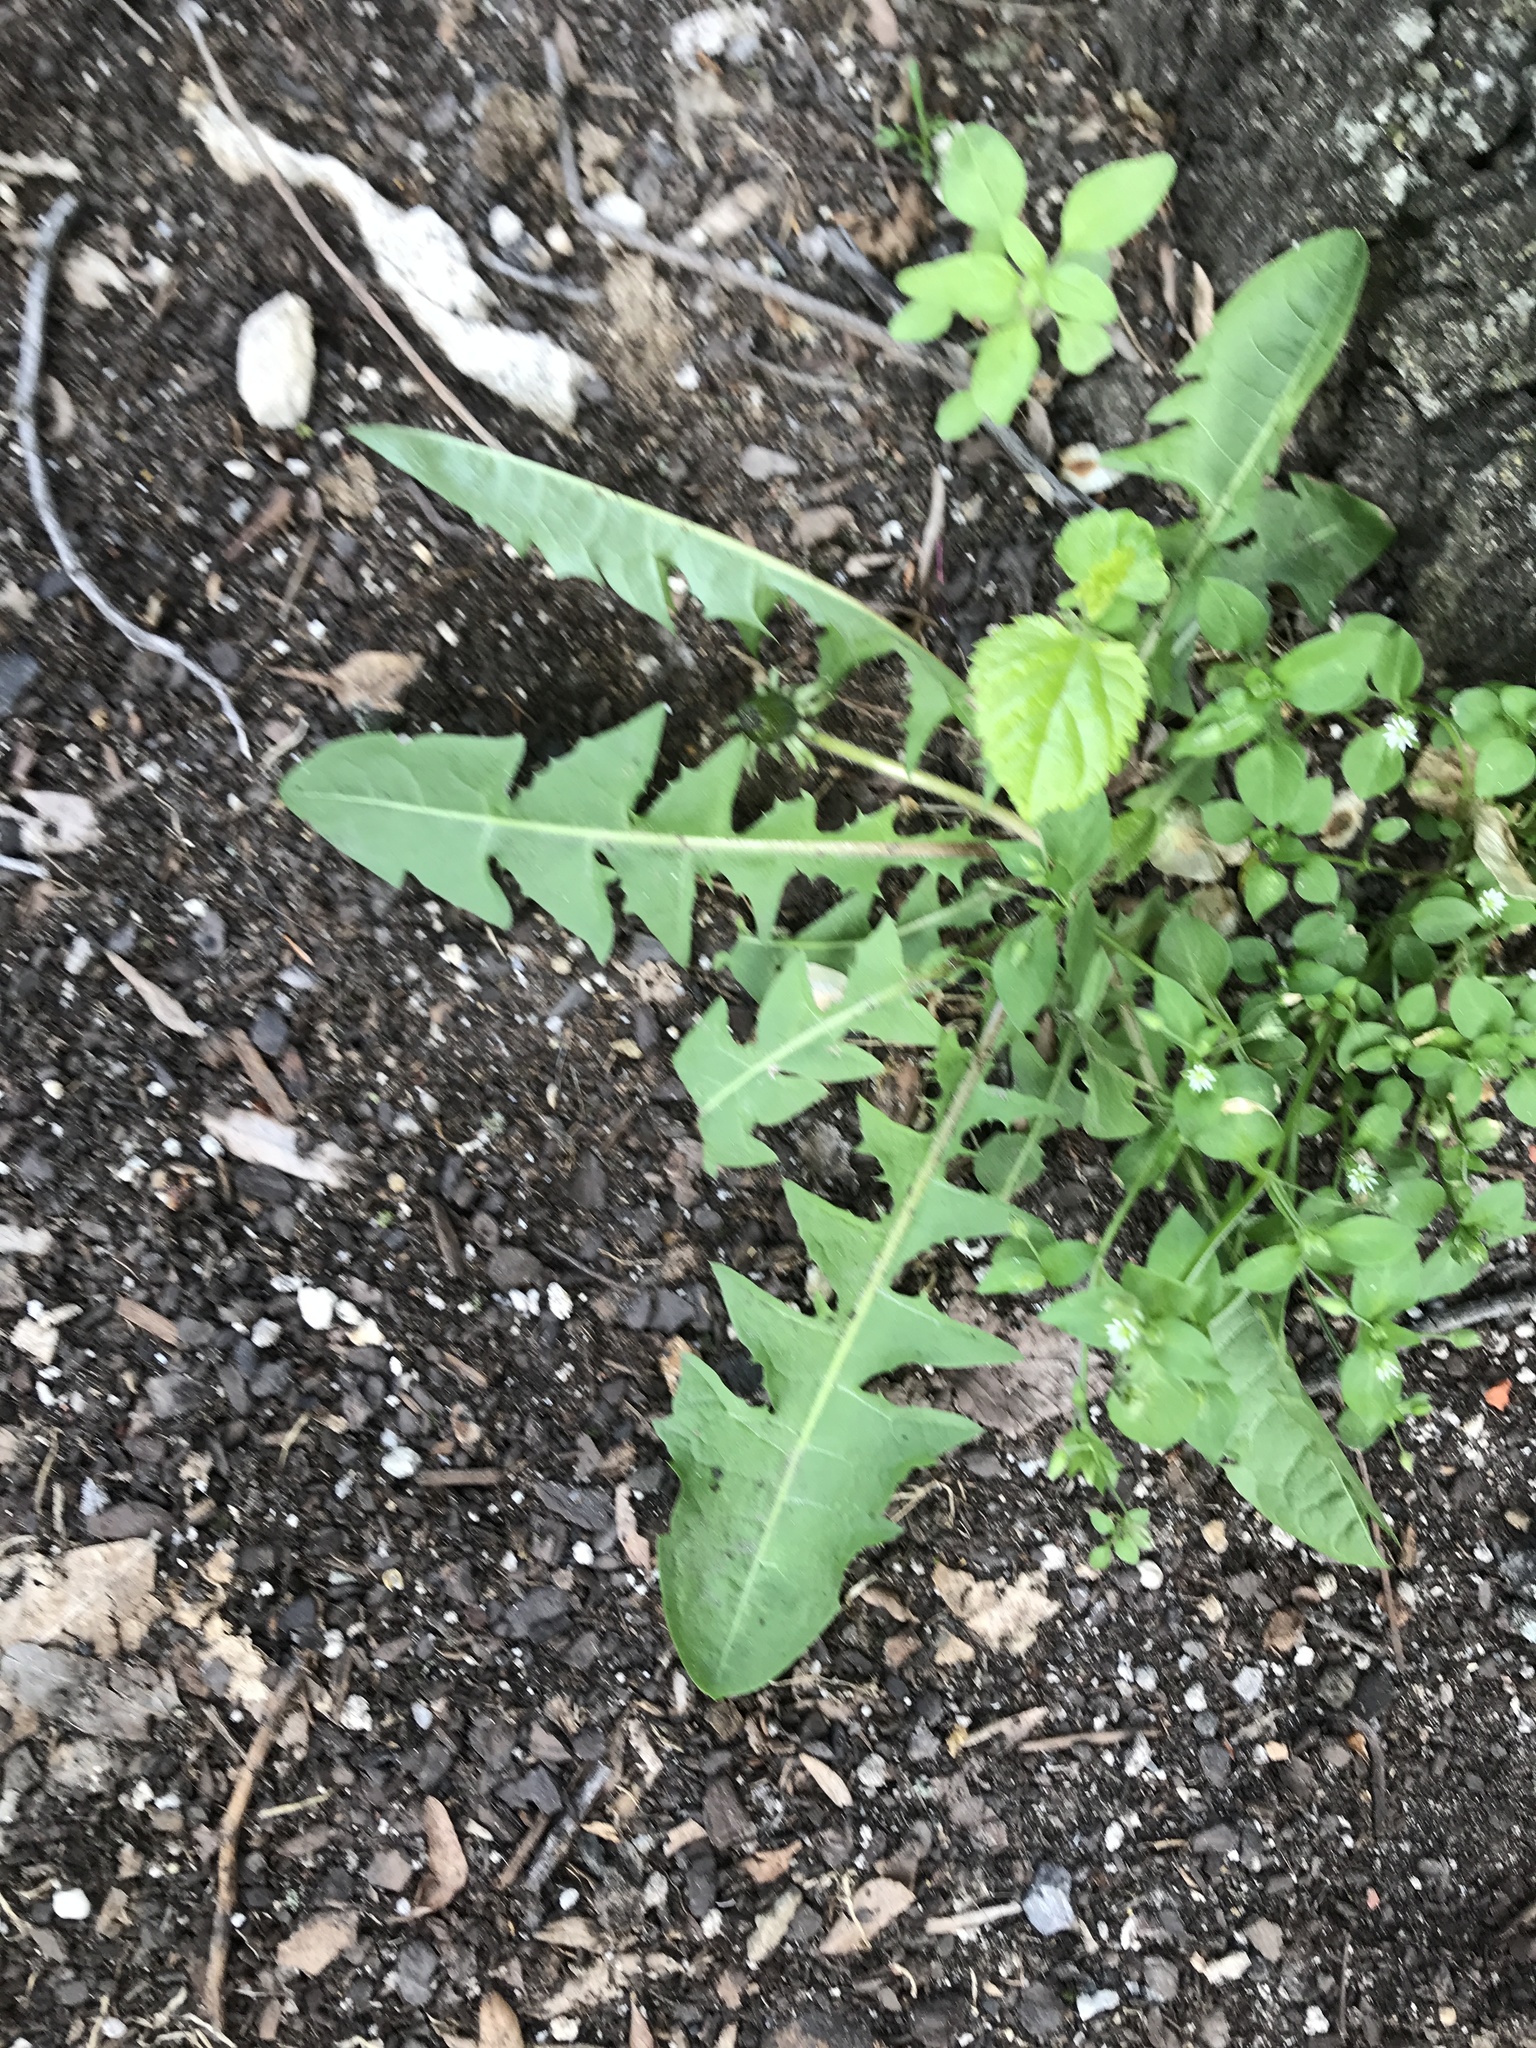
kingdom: Plantae
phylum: Tracheophyta
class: Magnoliopsida
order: Asterales
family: Asteraceae
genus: Taraxacum
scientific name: Taraxacum officinale
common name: Common dandelion
